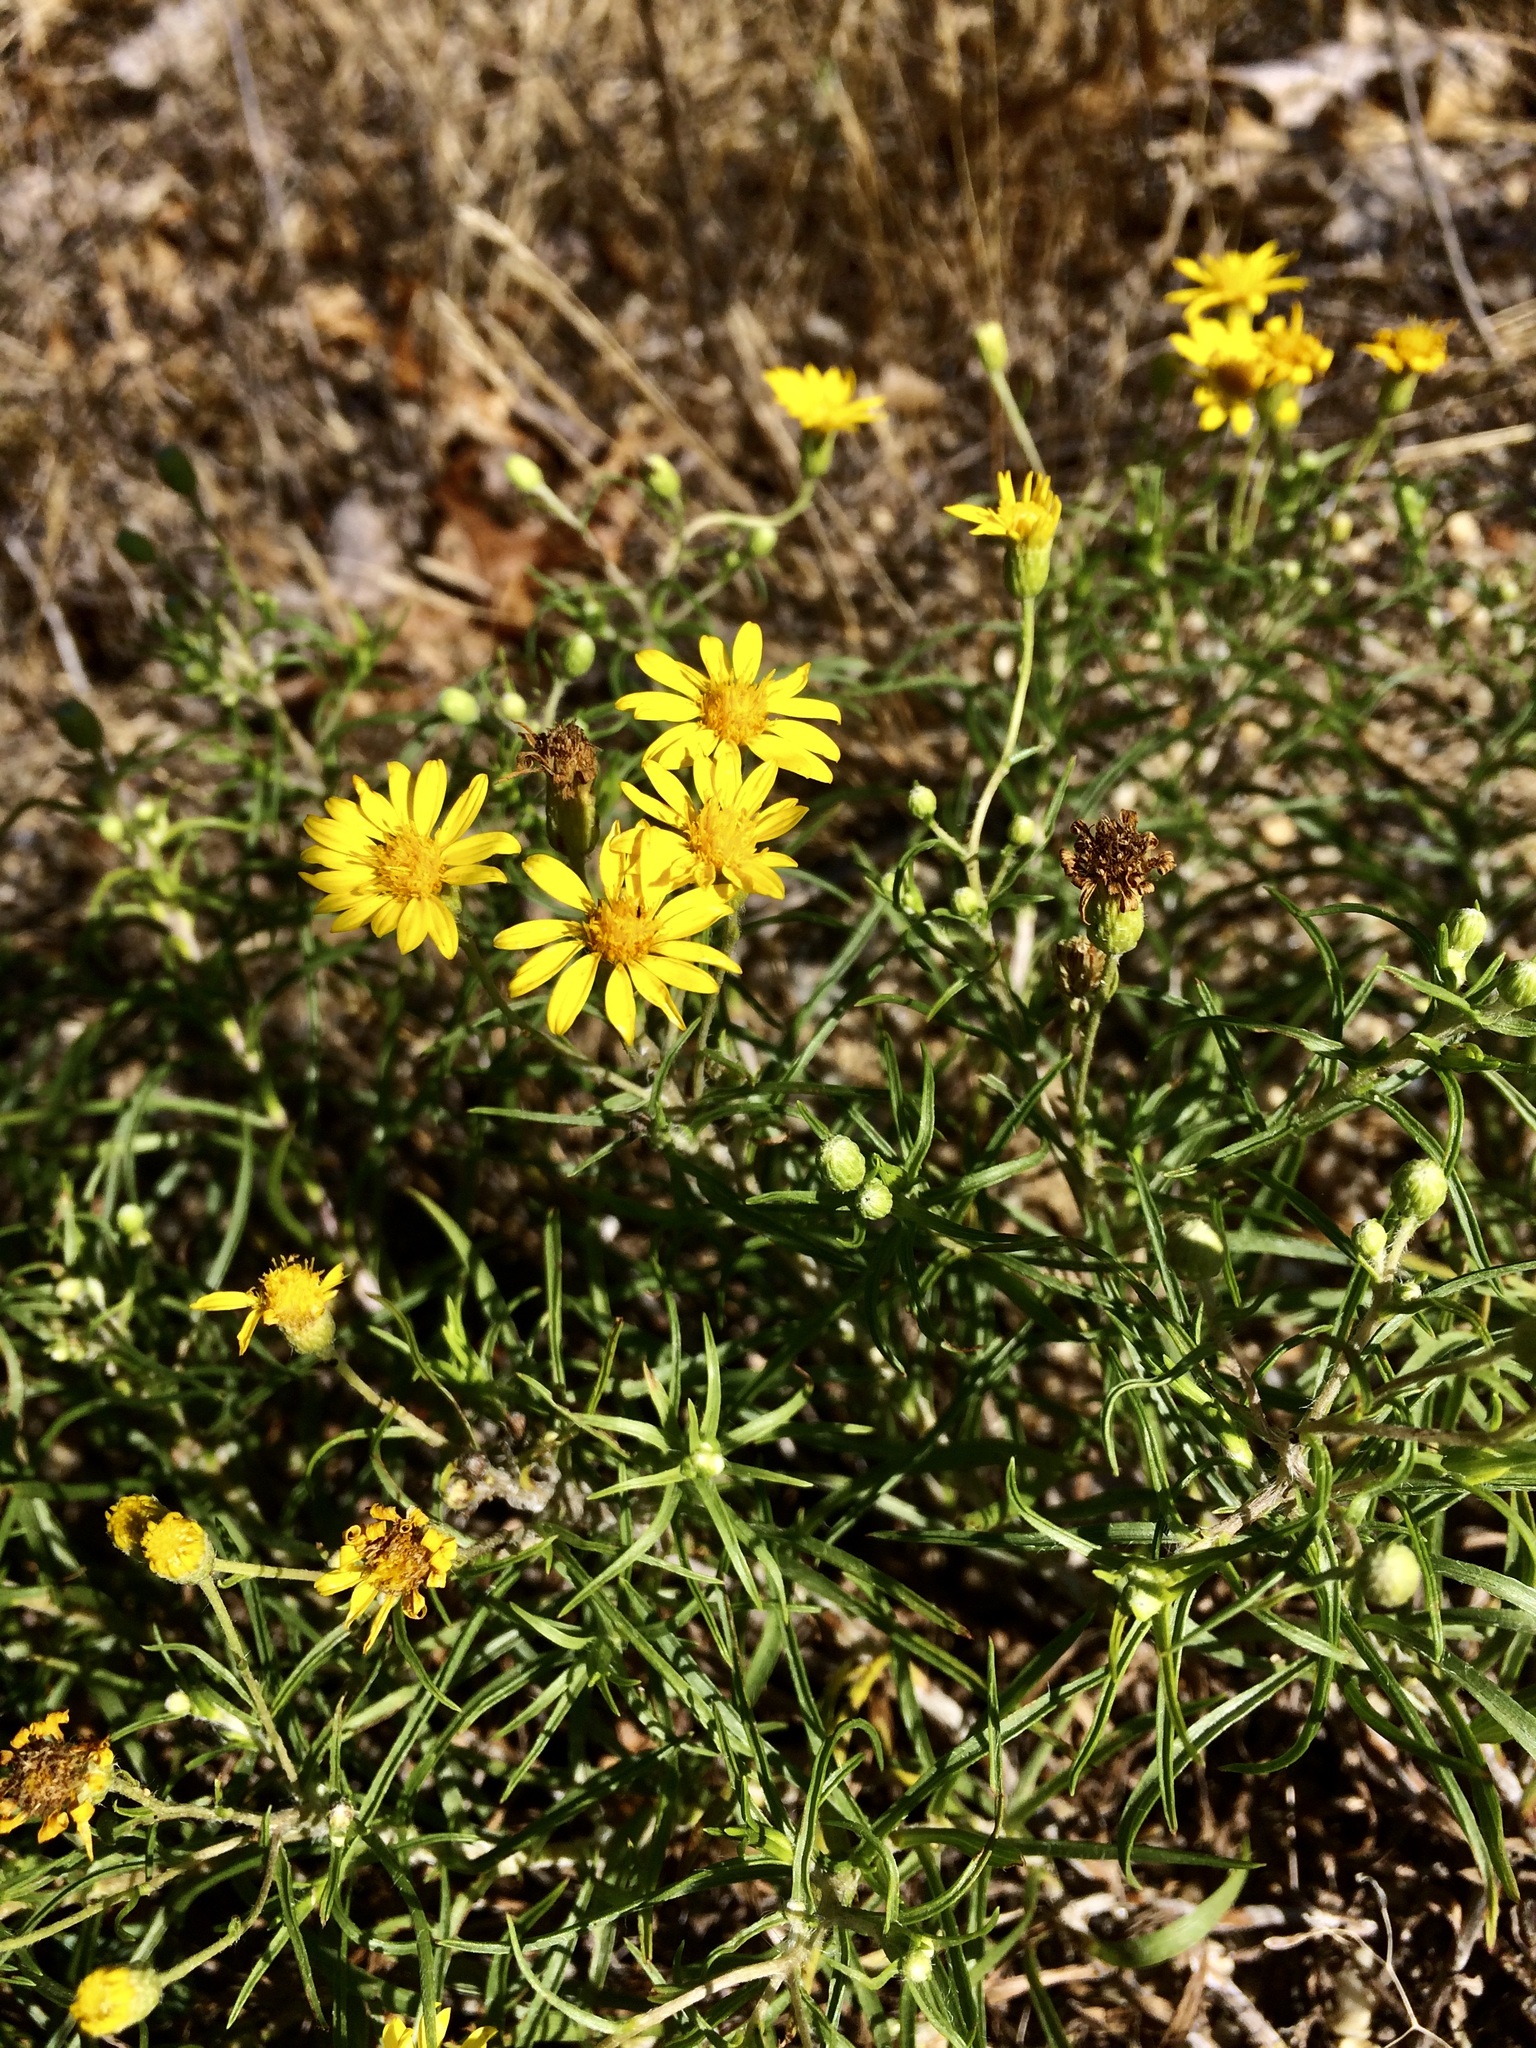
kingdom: Plantae
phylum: Tracheophyta
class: Magnoliopsida
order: Asterales
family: Asteraceae
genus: Pityopsis
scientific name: Pityopsis falcata
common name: Sickle-leaved goldenaster
